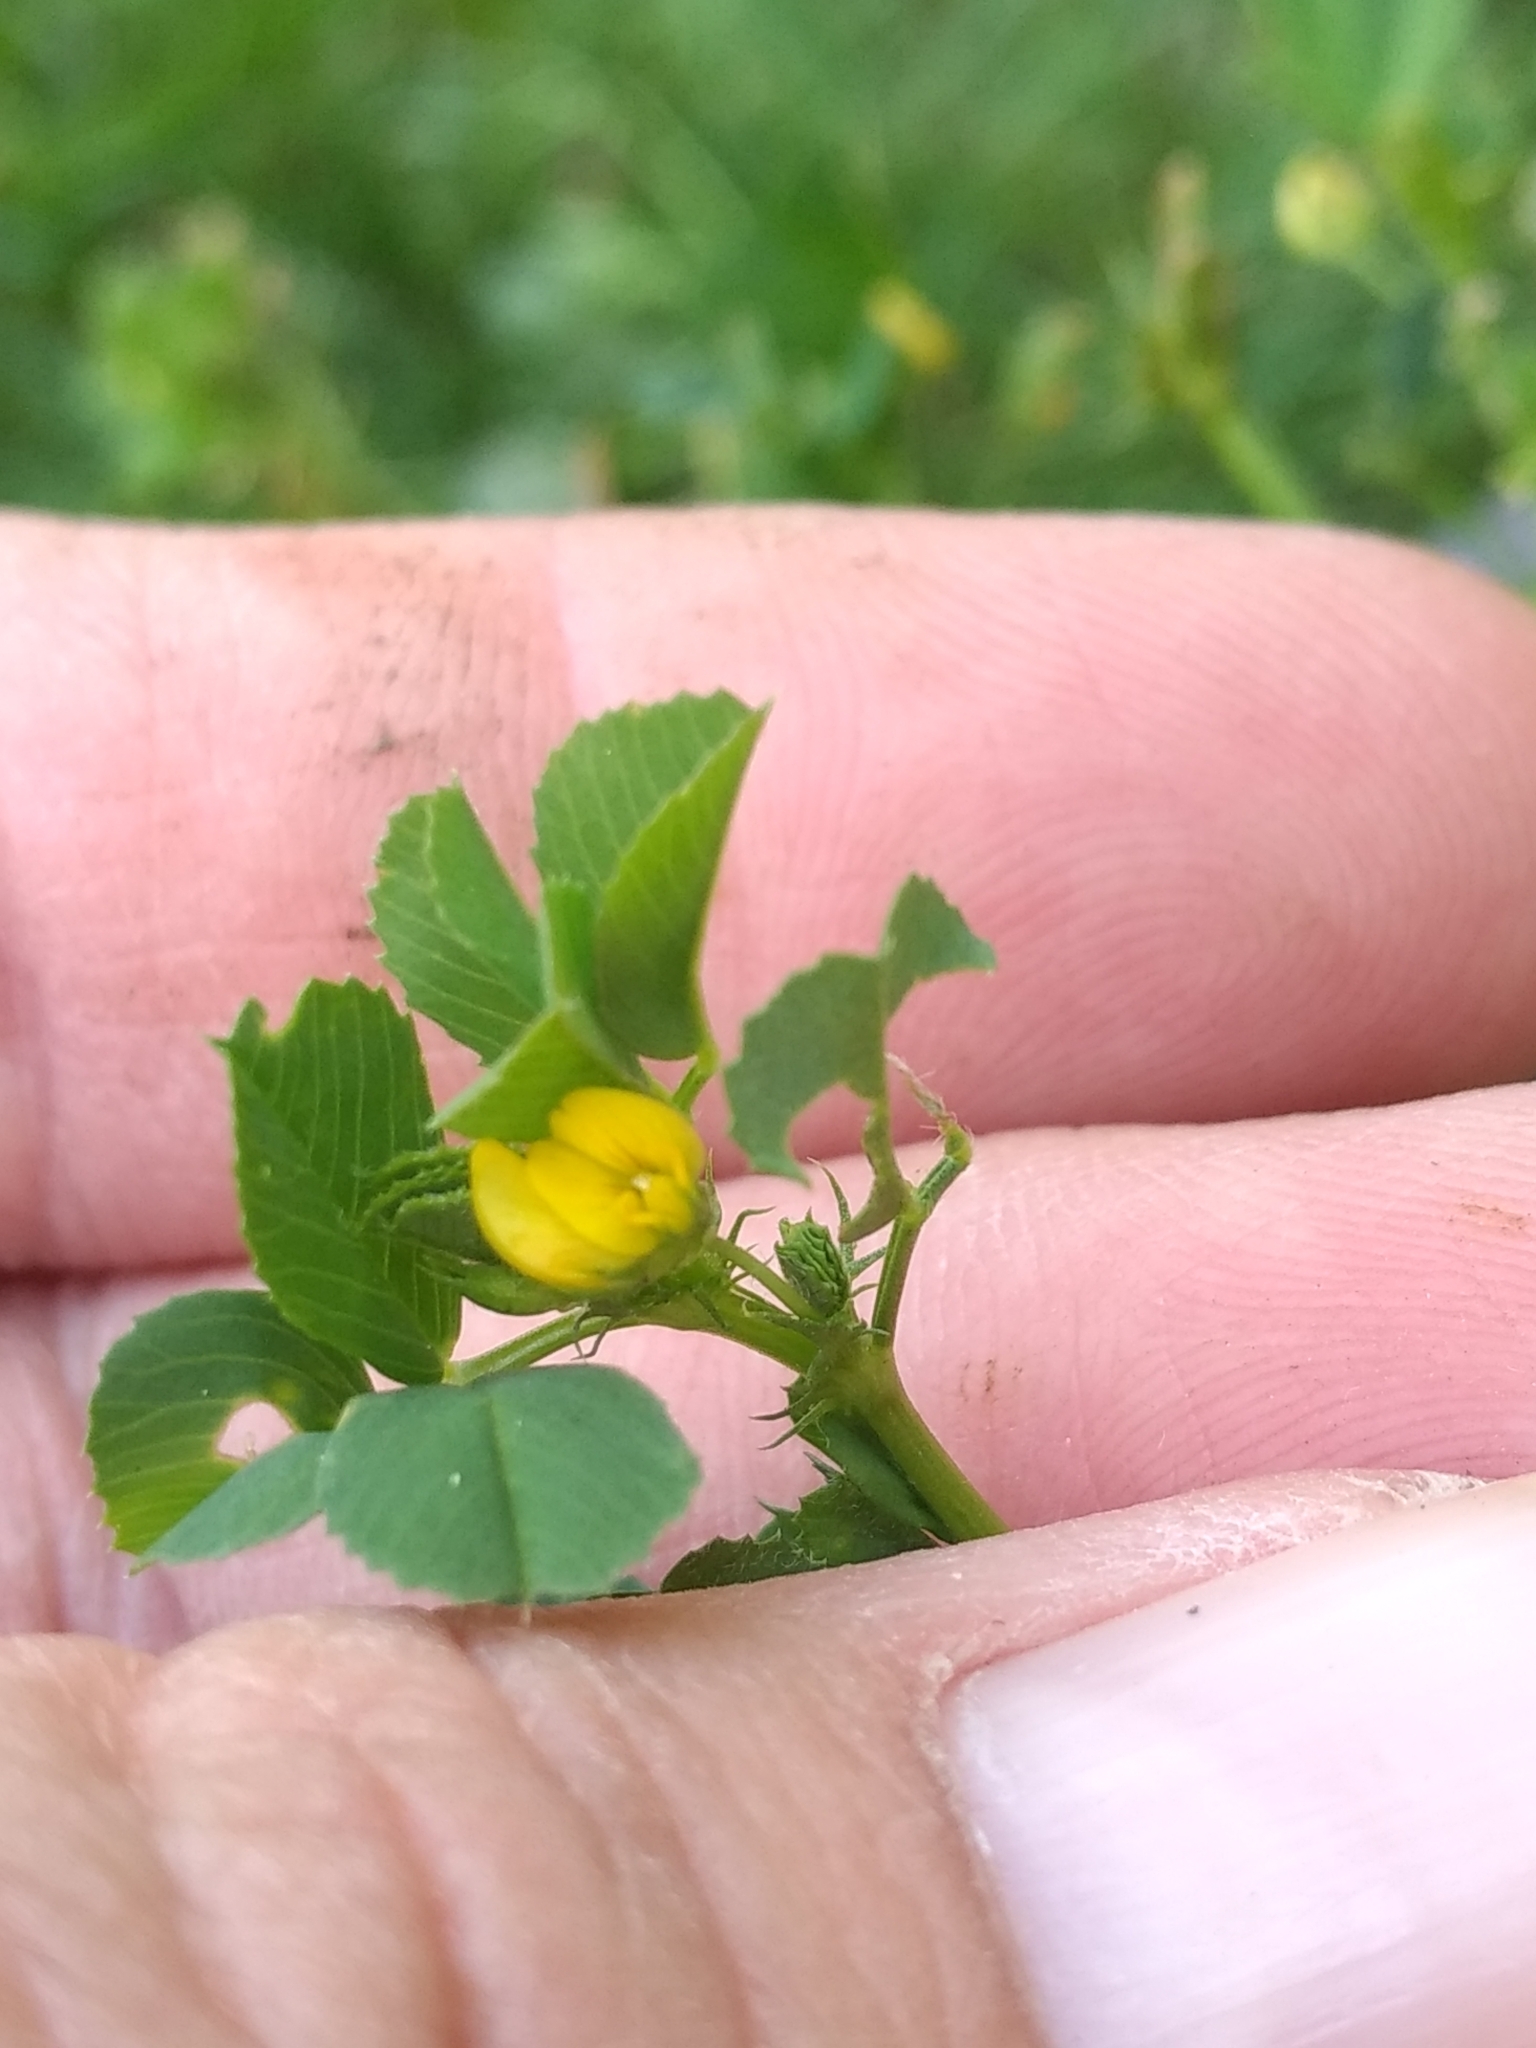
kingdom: Plantae
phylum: Tracheophyta
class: Magnoliopsida
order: Fabales
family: Fabaceae
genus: Medicago
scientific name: Medicago polymorpha
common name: Burclover
